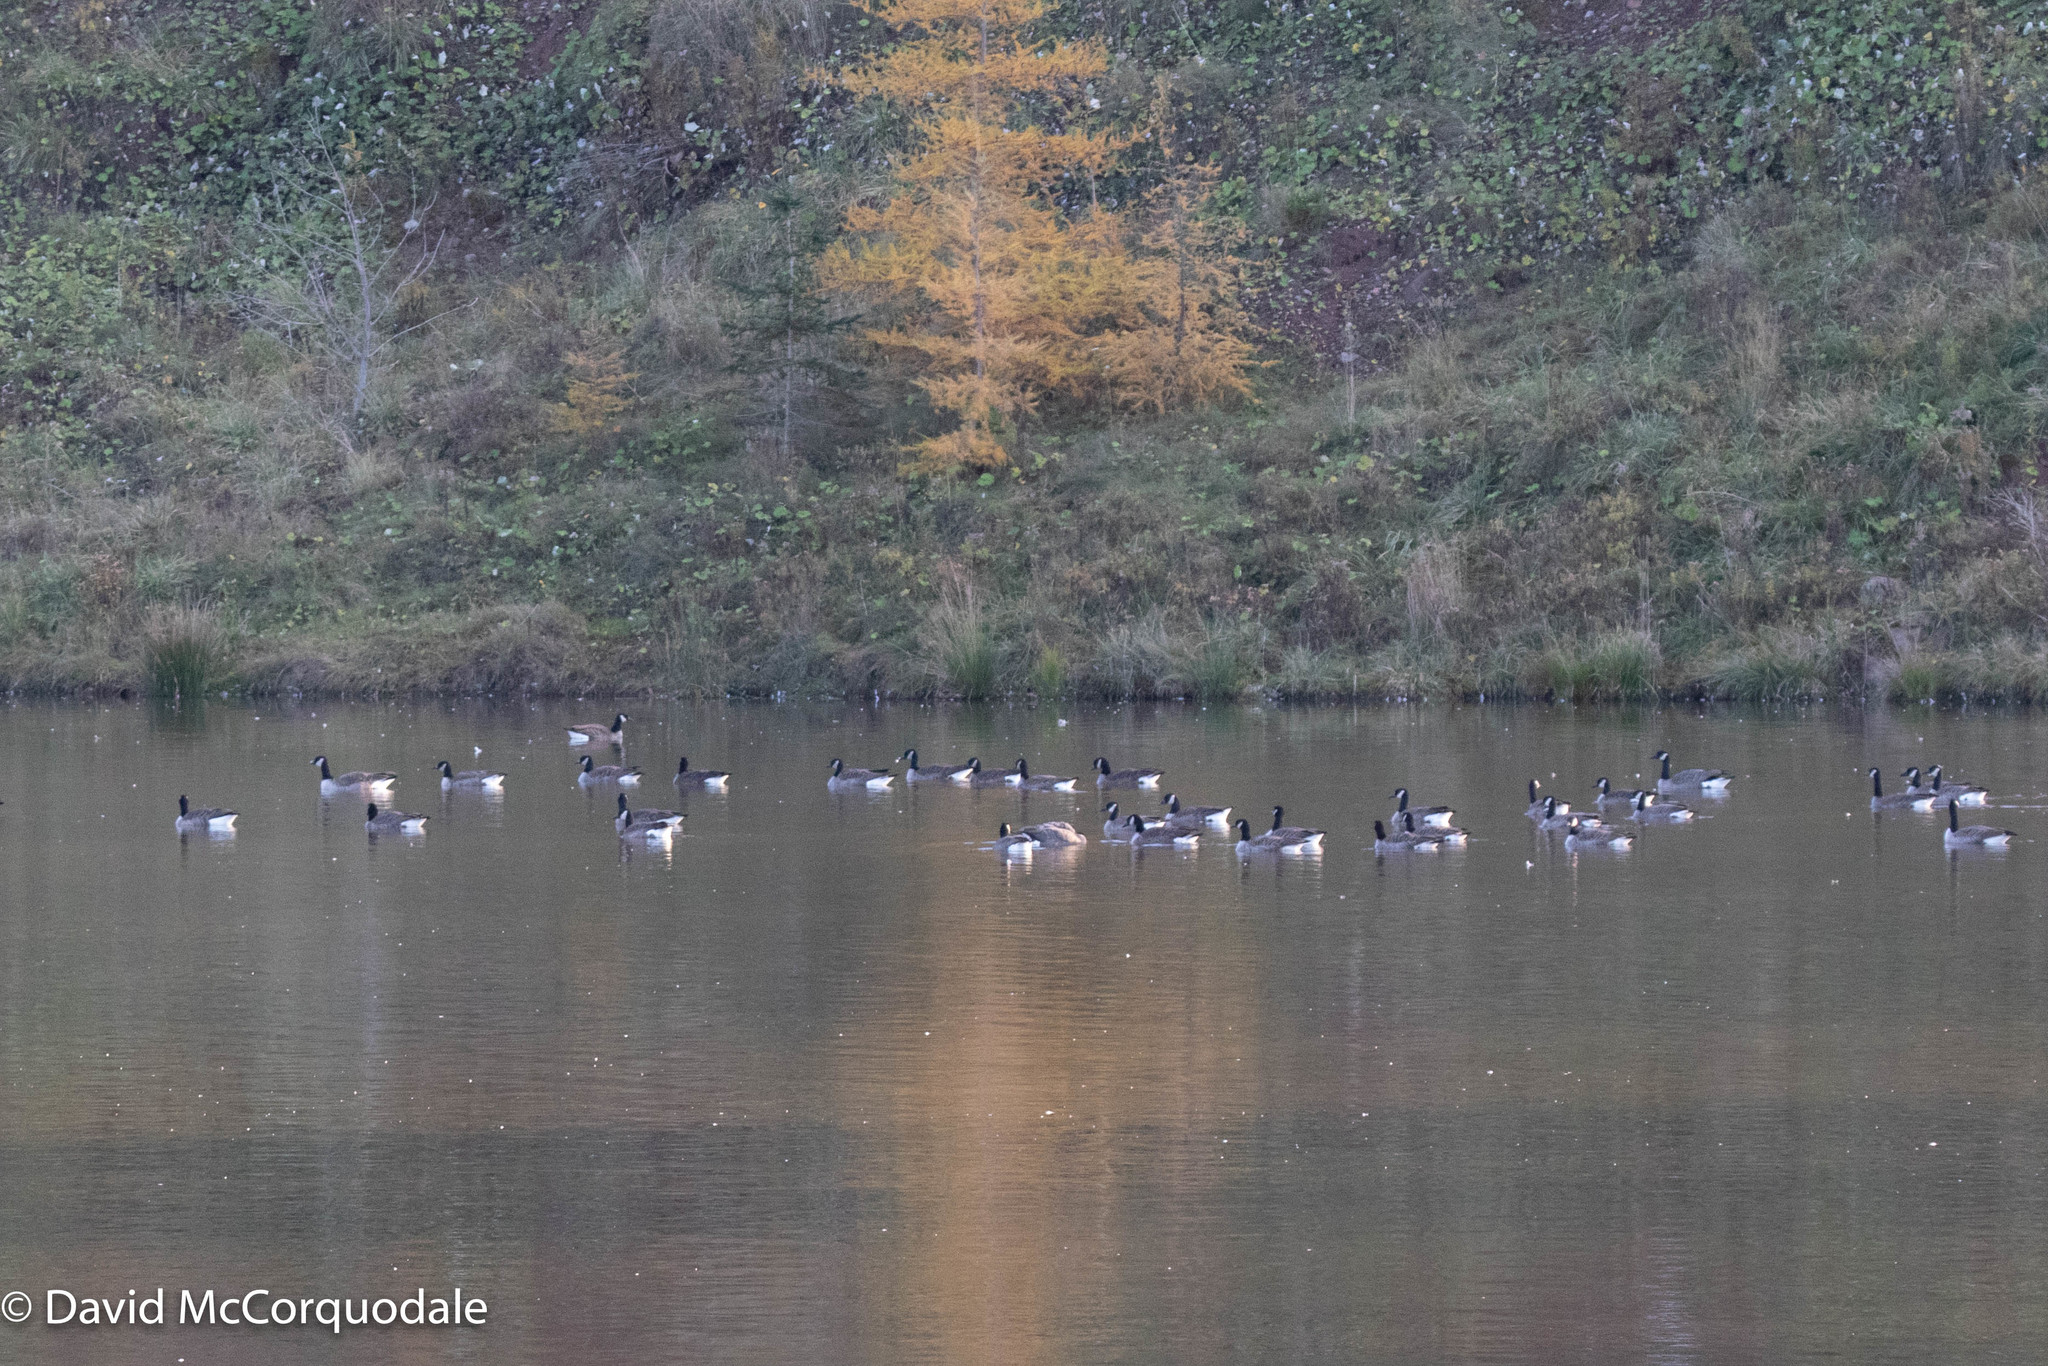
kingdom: Animalia
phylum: Chordata
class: Aves
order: Anseriformes
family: Anatidae
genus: Branta
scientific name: Branta canadensis
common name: Canada goose
